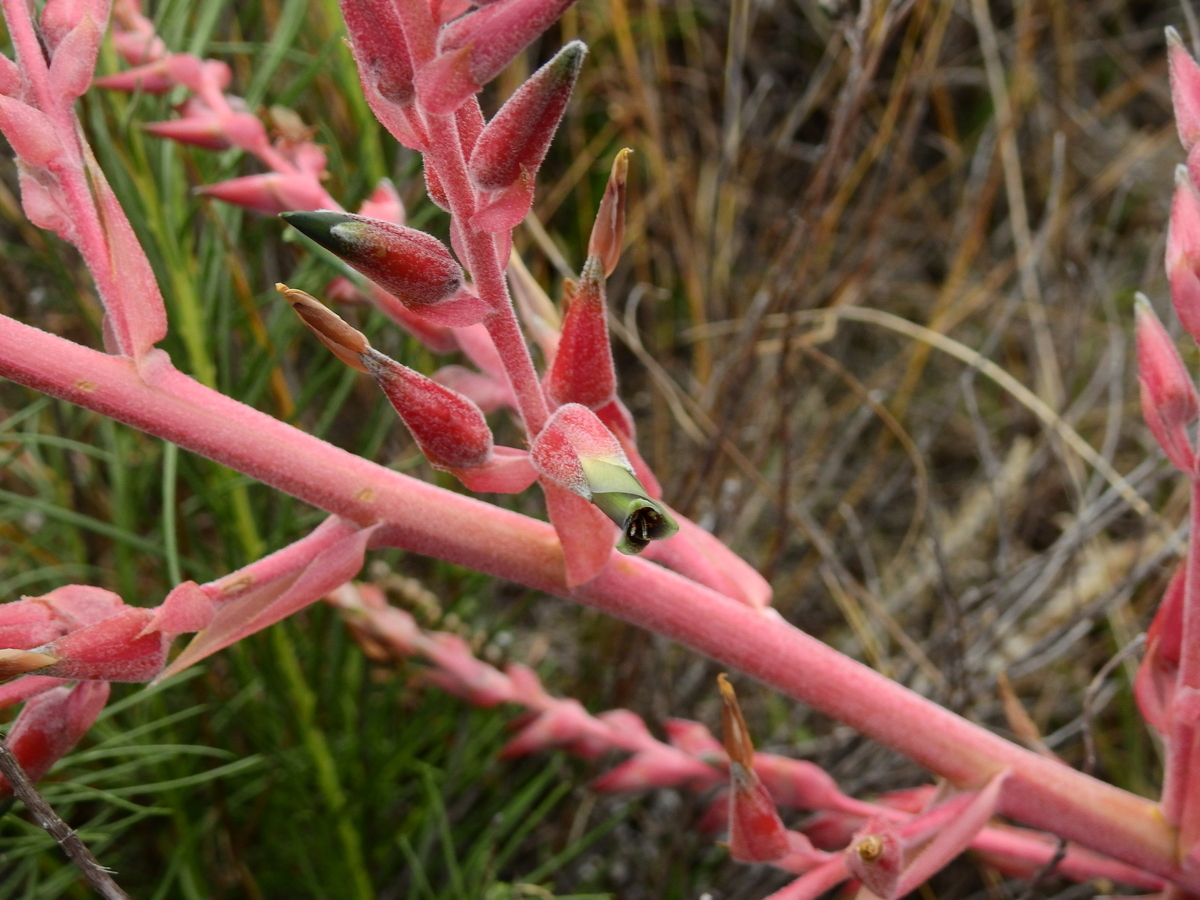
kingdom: Plantae
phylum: Tracheophyta
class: Liliopsida
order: Poales
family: Bromeliaceae
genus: Puya
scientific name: Puya spathacea
